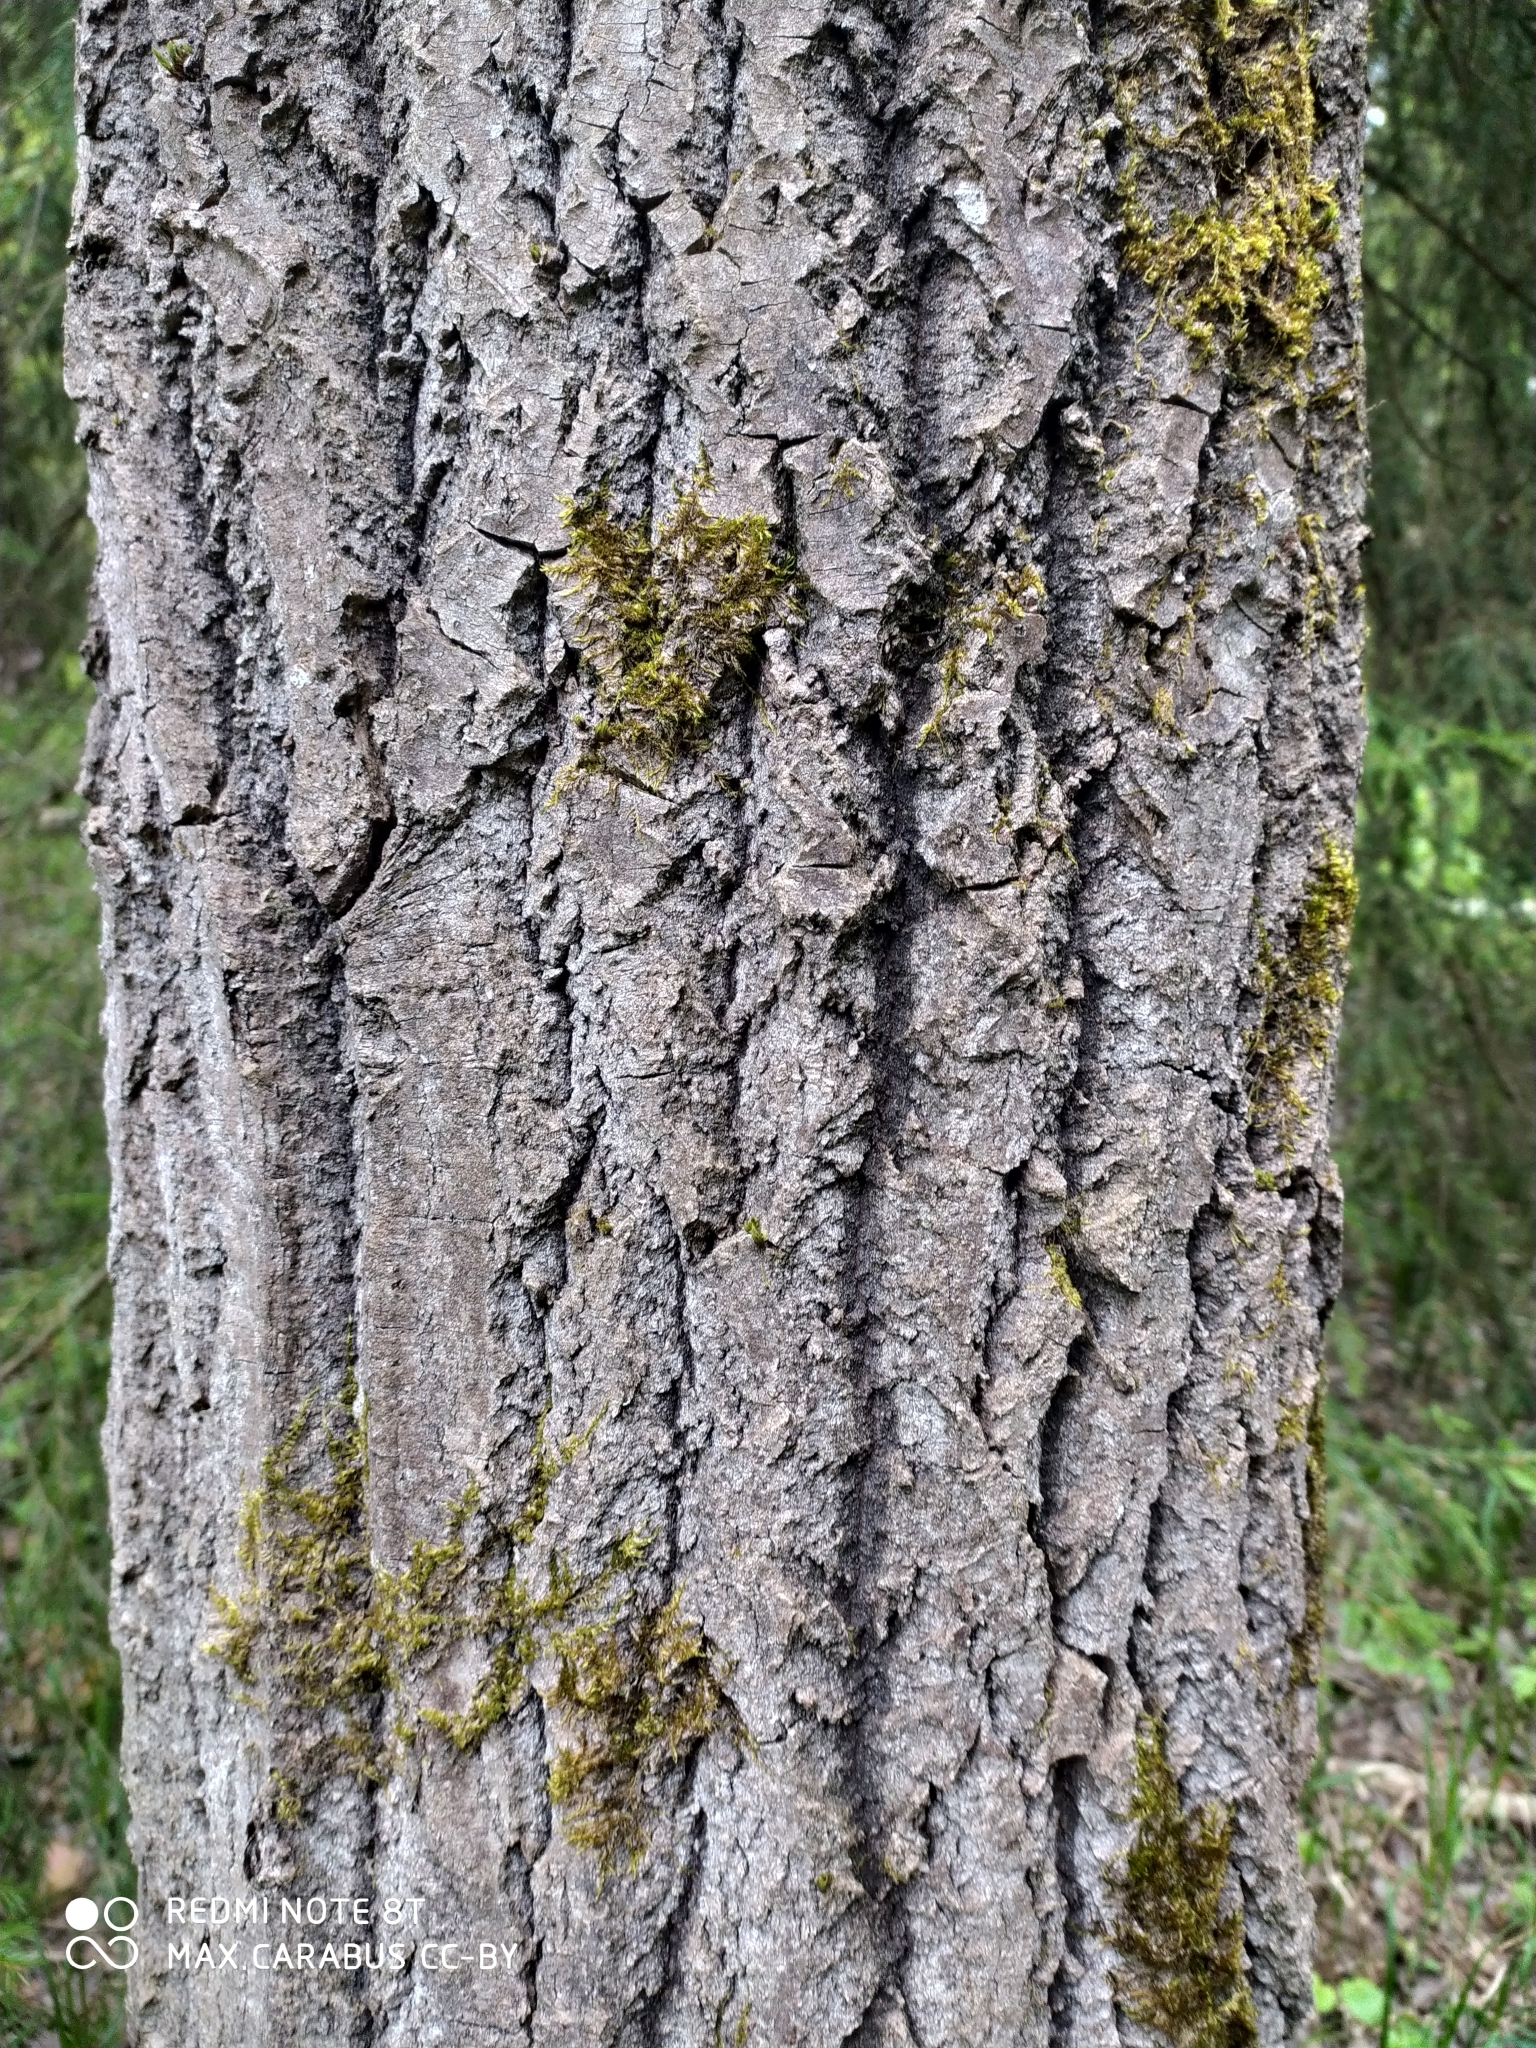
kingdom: Plantae
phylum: Tracheophyta
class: Magnoliopsida
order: Malpighiales
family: Salicaceae
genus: Populus
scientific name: Populus tremula
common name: European aspen
